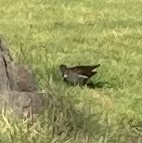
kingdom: Animalia
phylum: Chordata
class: Aves
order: Gruiformes
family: Rallidae
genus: Gallinula
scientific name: Gallinula chloropus
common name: Common moorhen
